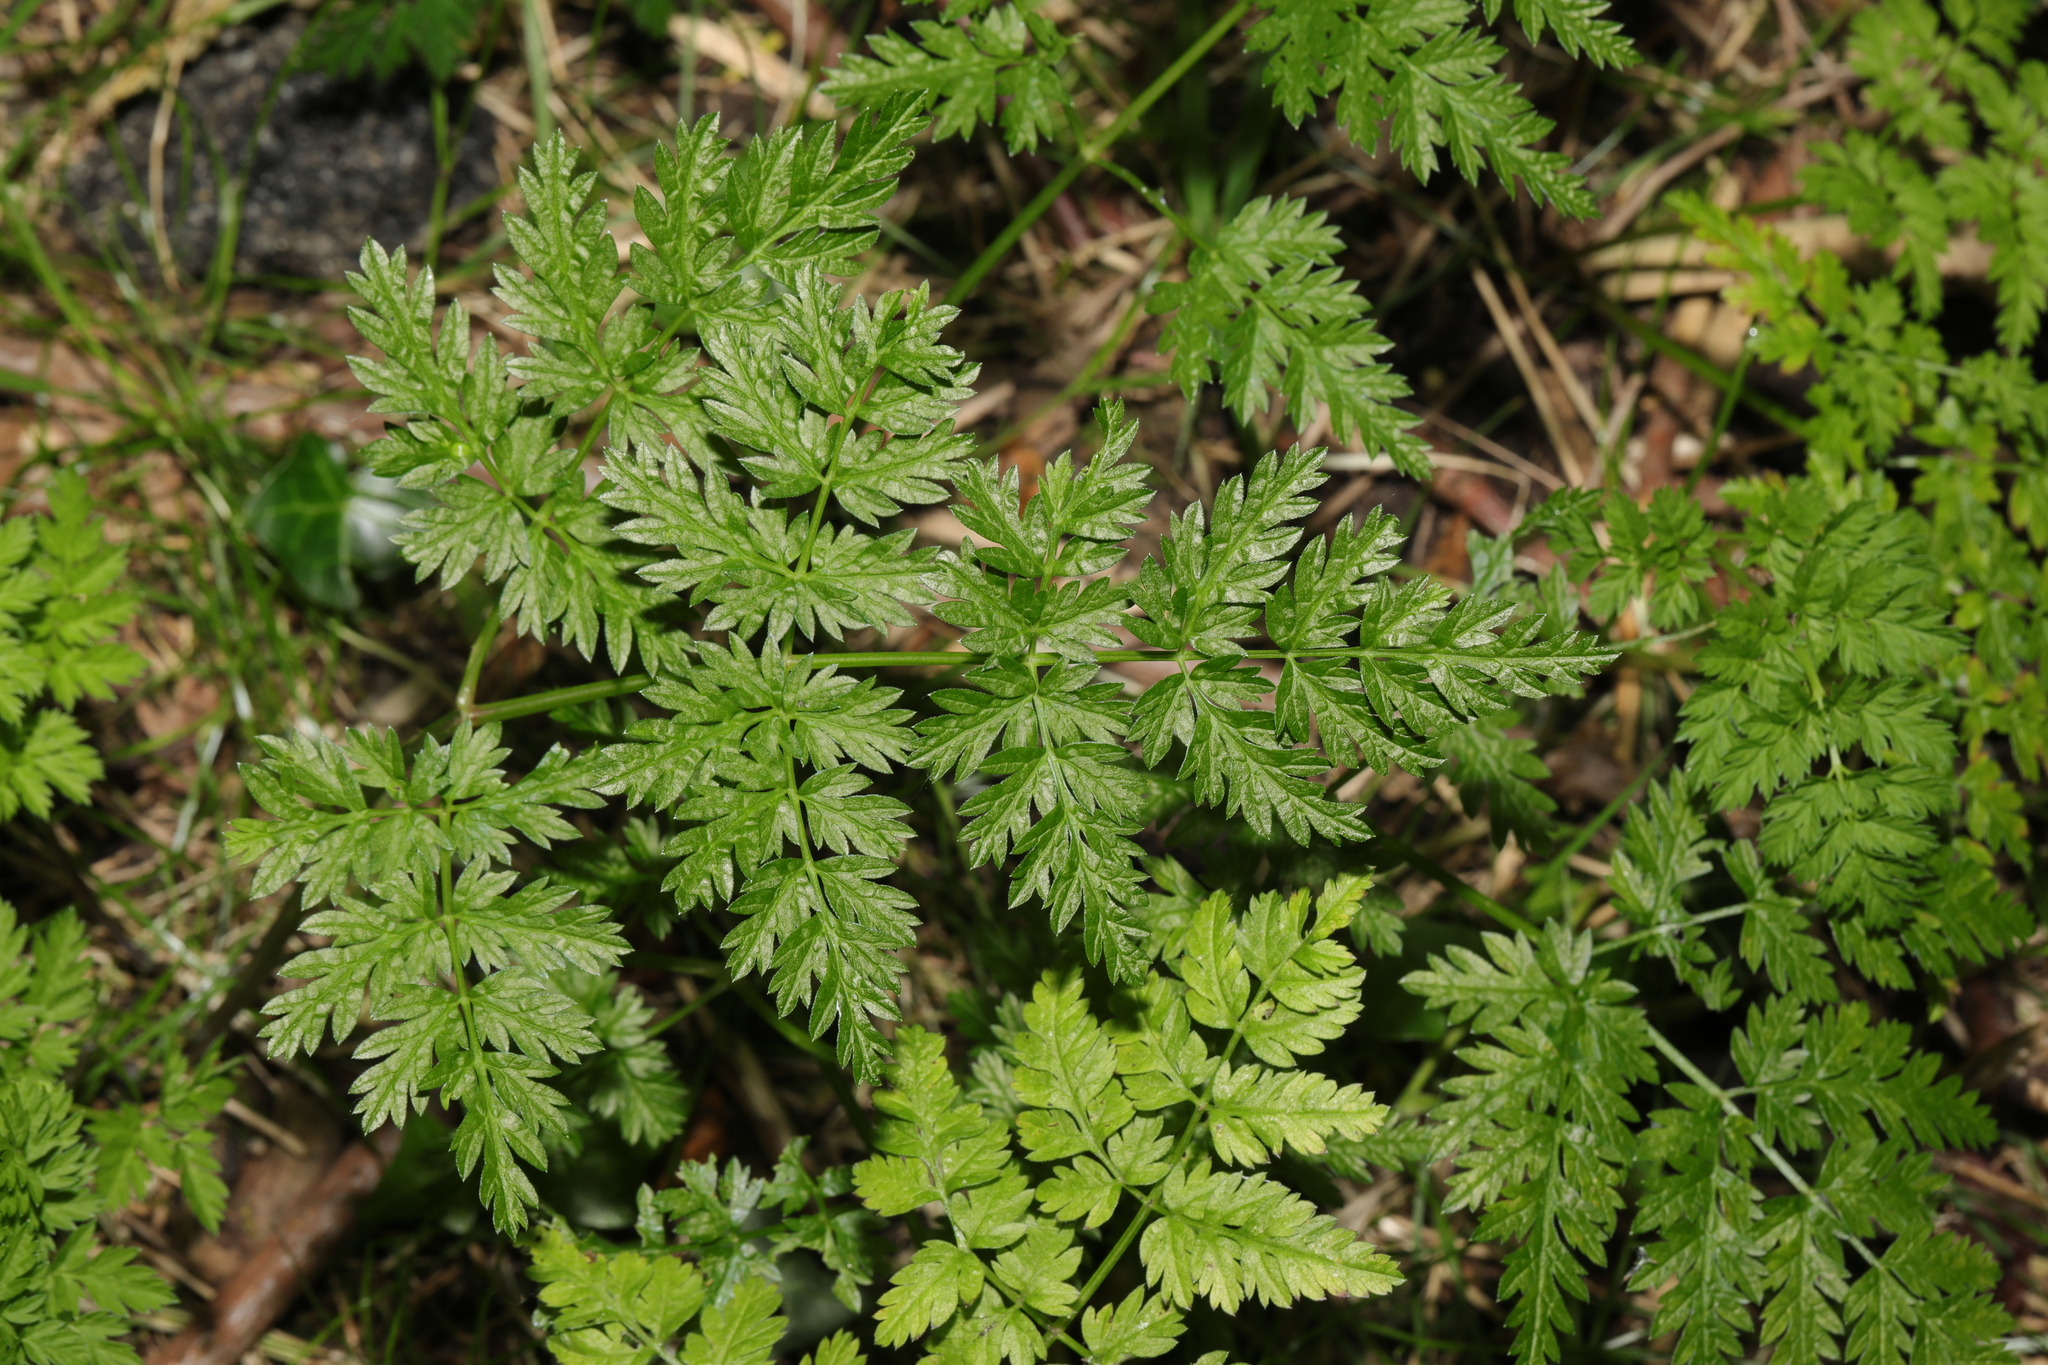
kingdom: Plantae
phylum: Tracheophyta
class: Magnoliopsida
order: Apiales
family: Apiaceae
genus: Anthriscus
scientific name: Anthriscus sylvestris
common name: Cow parsley
